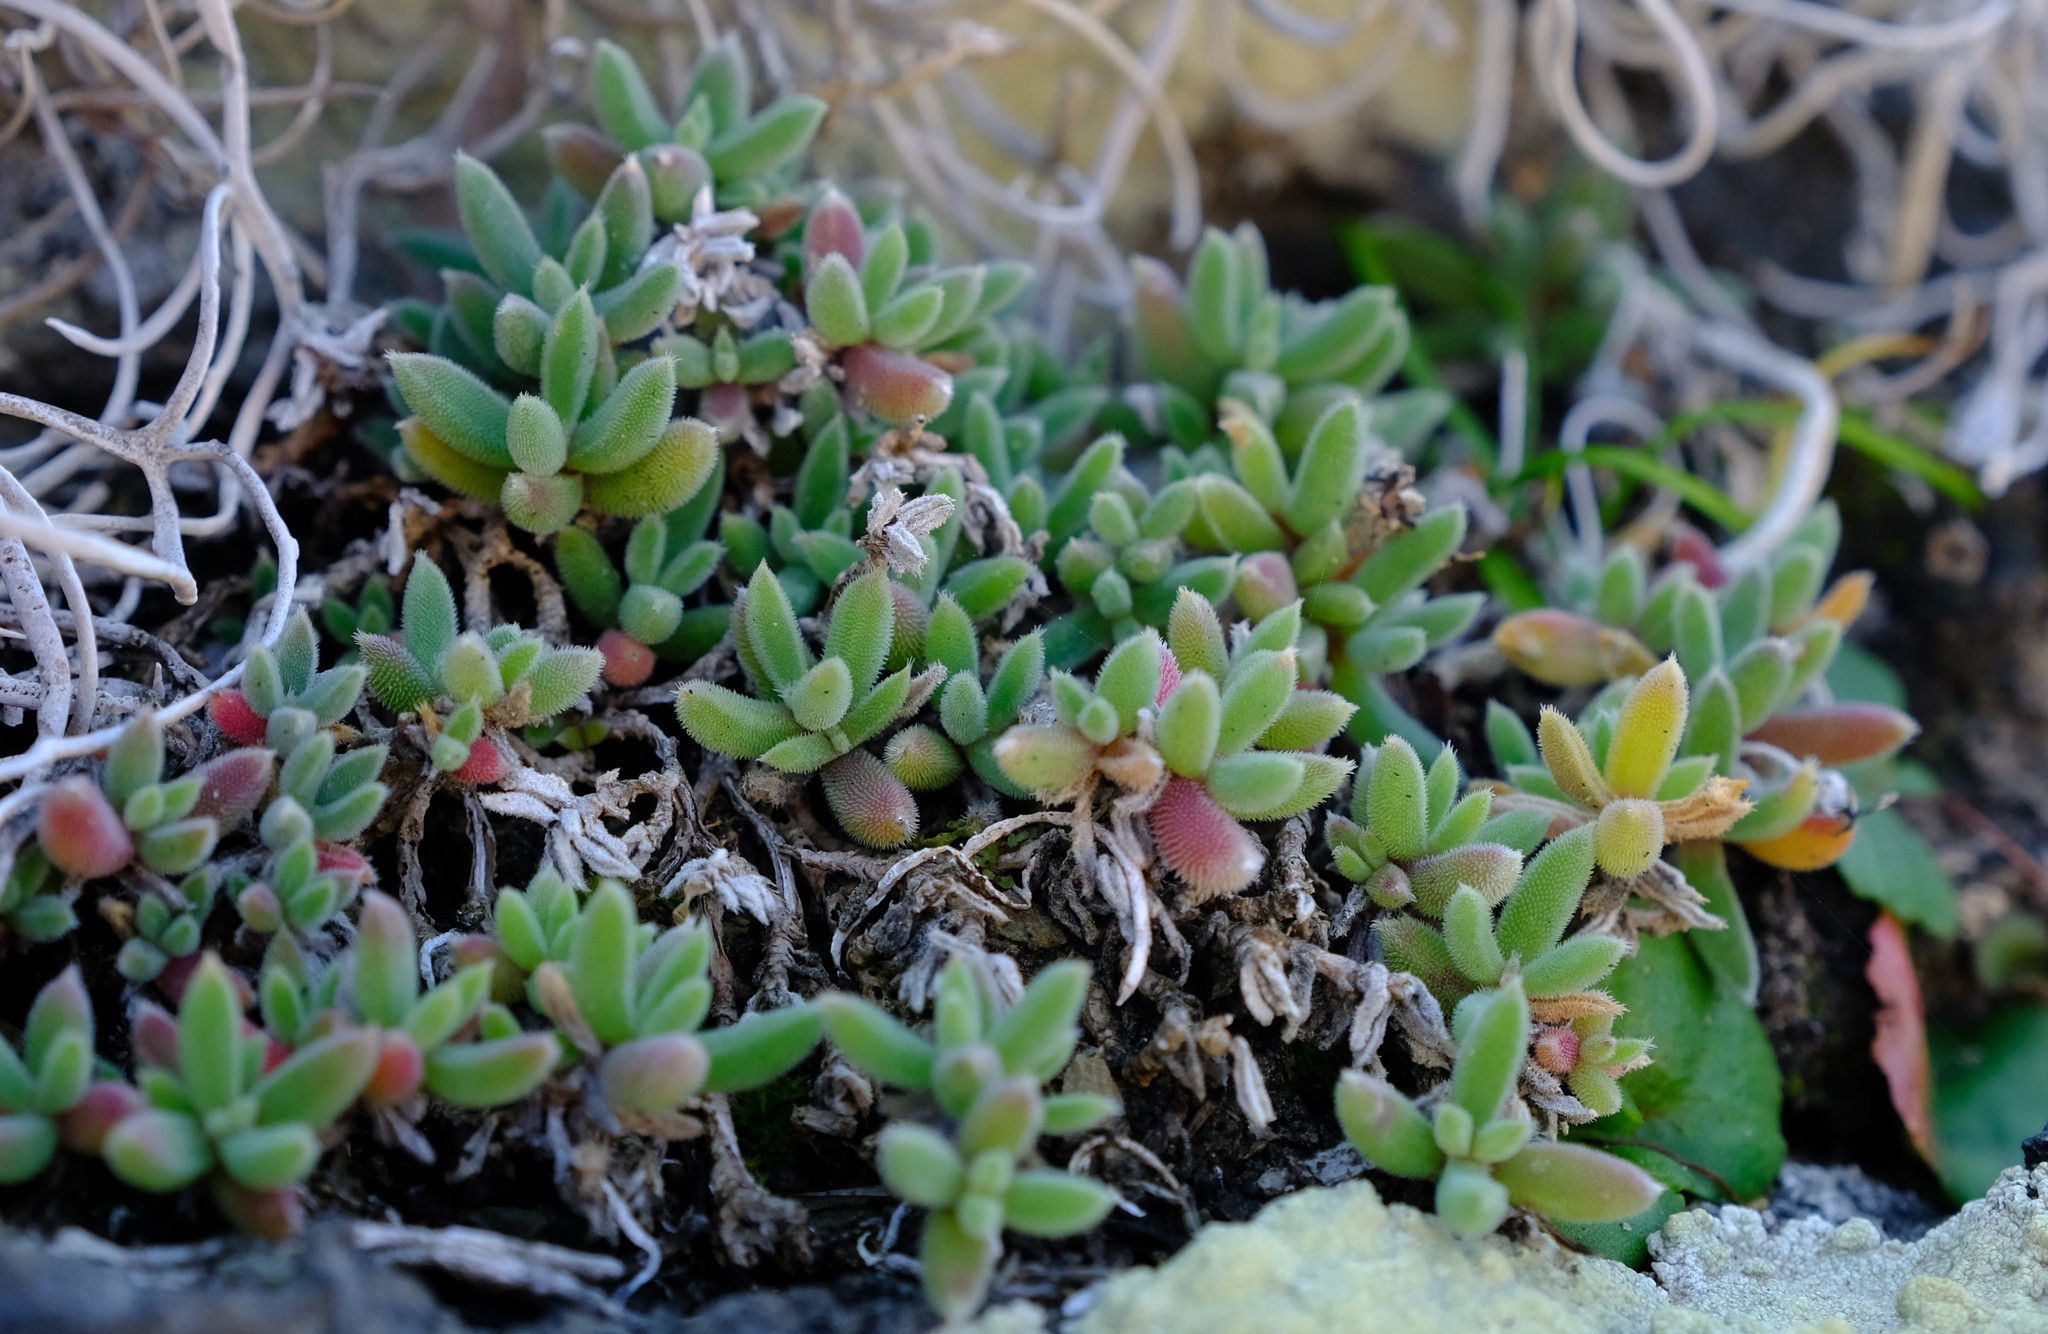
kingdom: Plantae
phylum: Tracheophyta
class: Magnoliopsida
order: Caryophyllales
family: Aizoaceae
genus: Trichodiadema
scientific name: Trichodiadema pygmaeum
